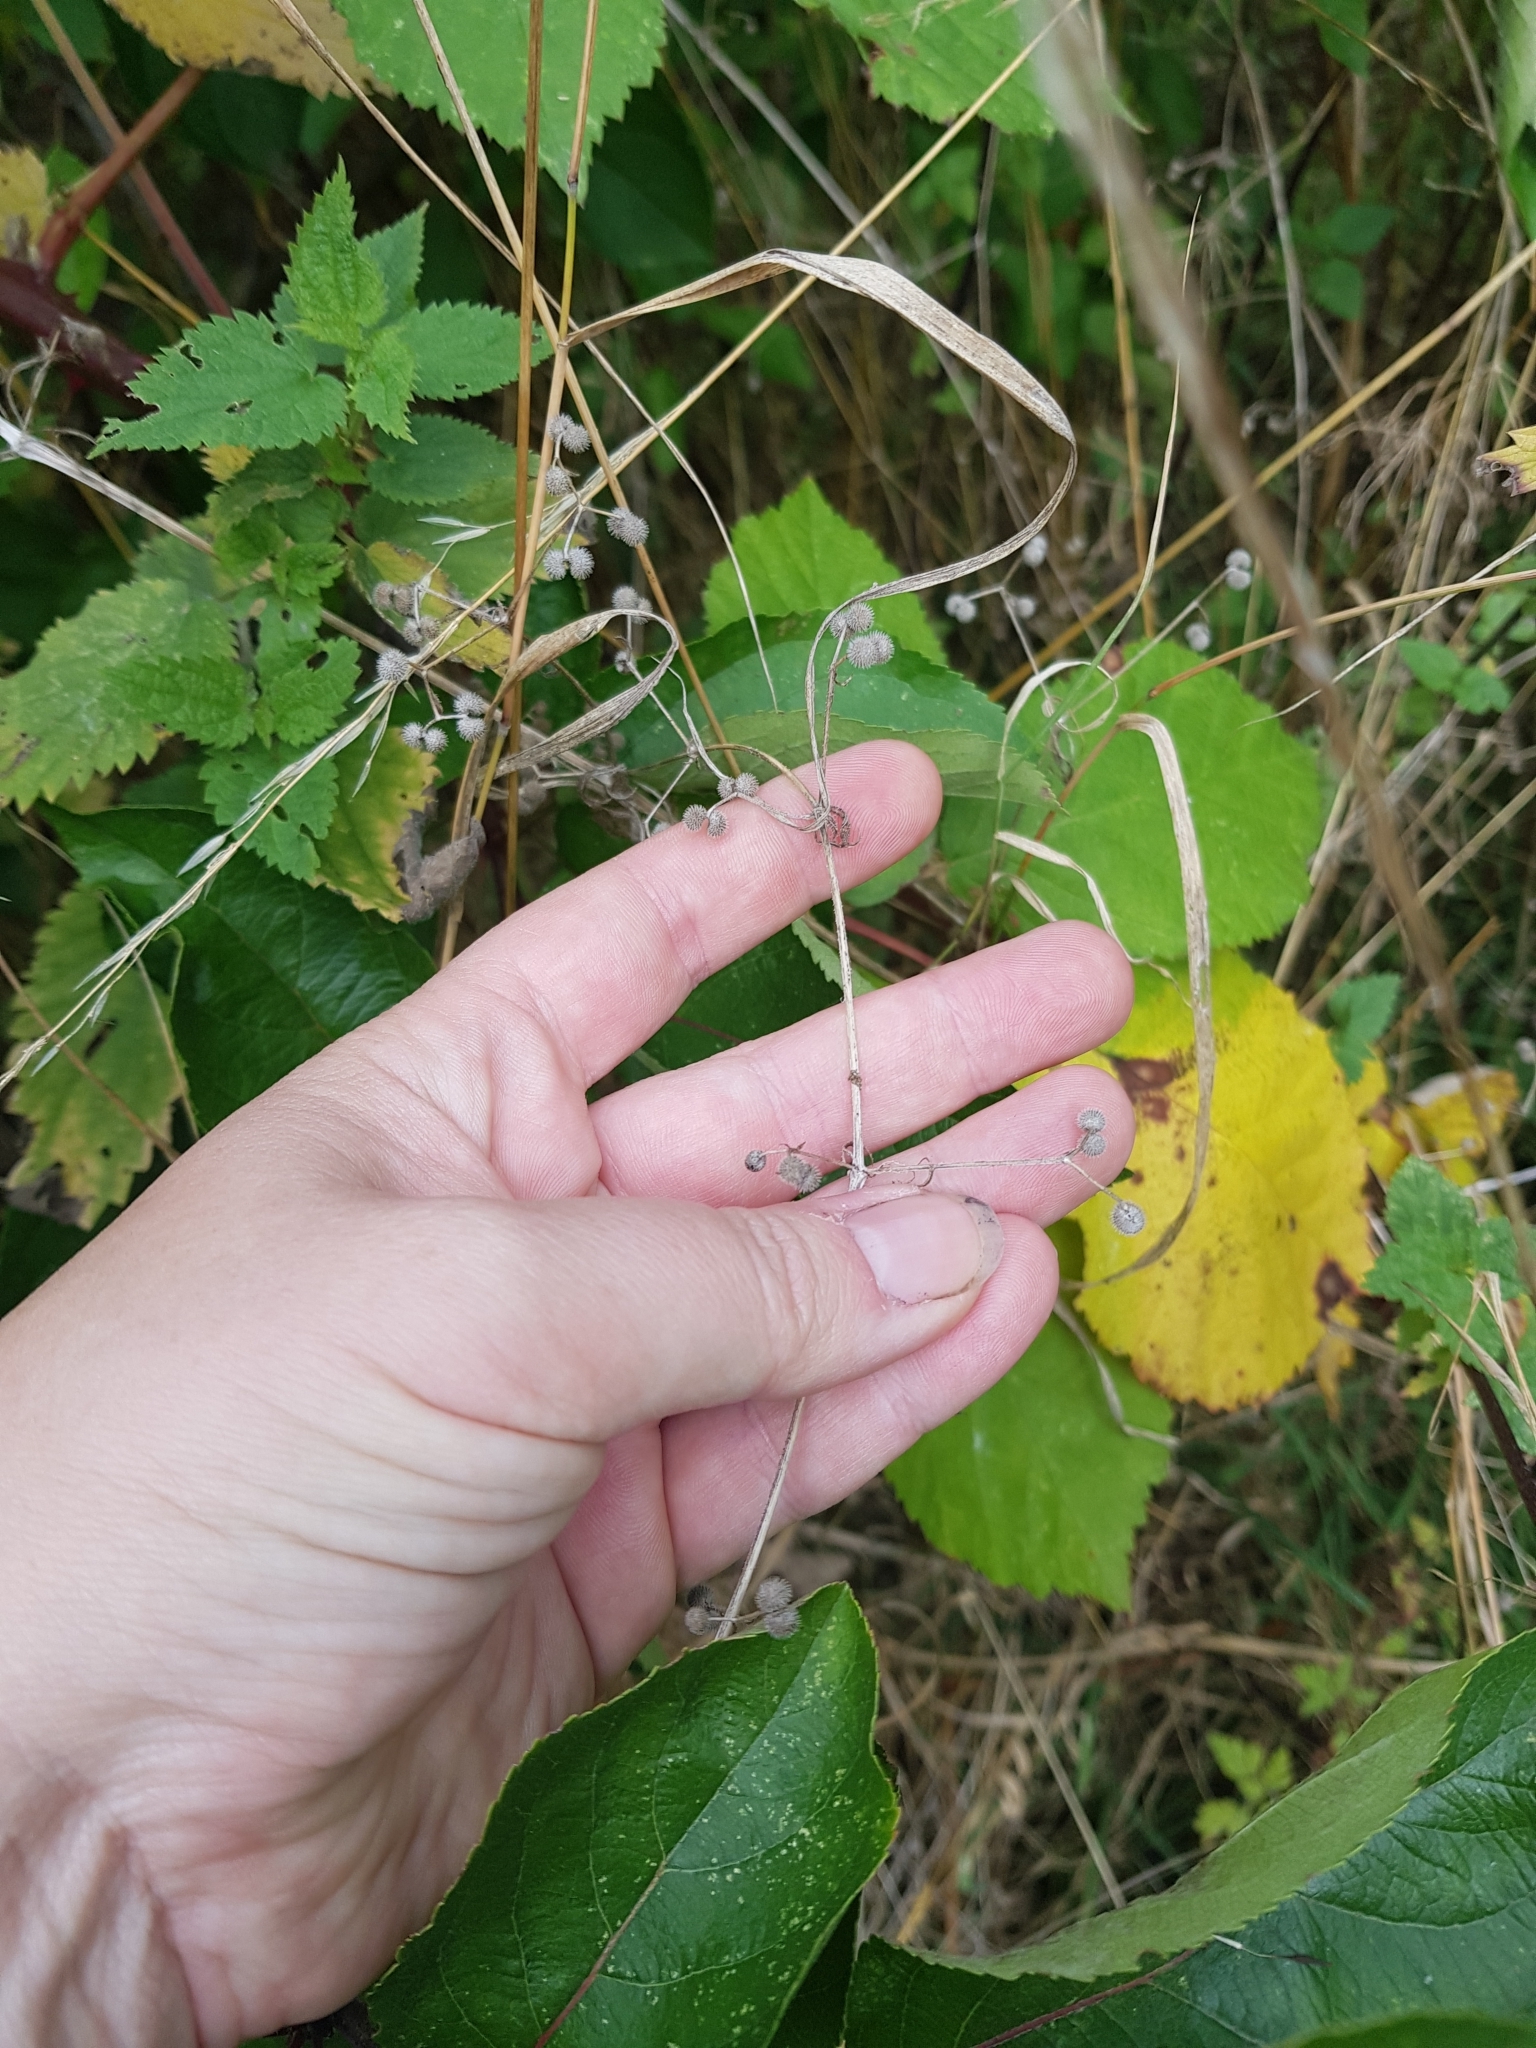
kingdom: Plantae
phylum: Tracheophyta
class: Magnoliopsida
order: Gentianales
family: Rubiaceae
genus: Galium
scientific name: Galium aparine
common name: Cleavers
